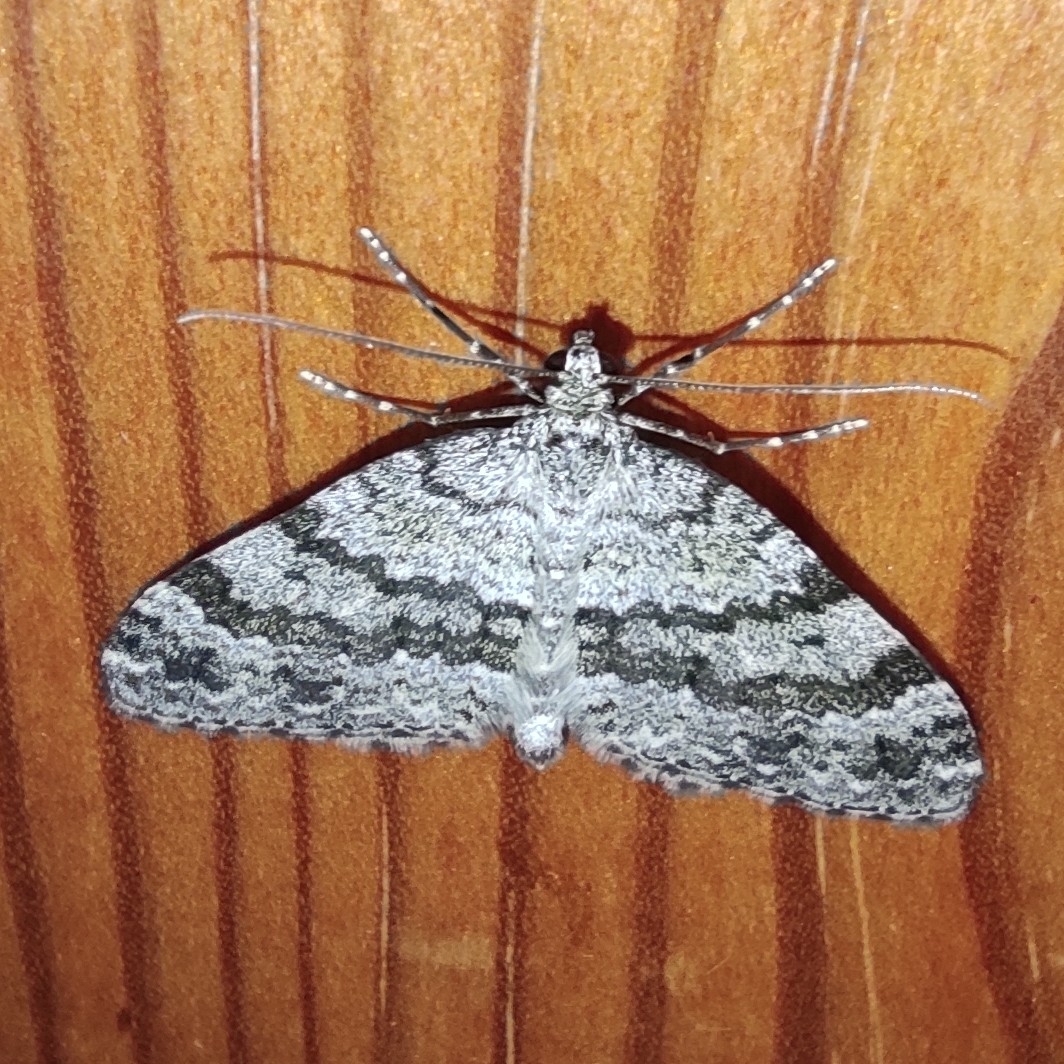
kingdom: Animalia
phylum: Arthropoda
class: Insecta
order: Lepidoptera
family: Geometridae
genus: Entephria
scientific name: Entephria caesiata
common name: Grey mountain moth
